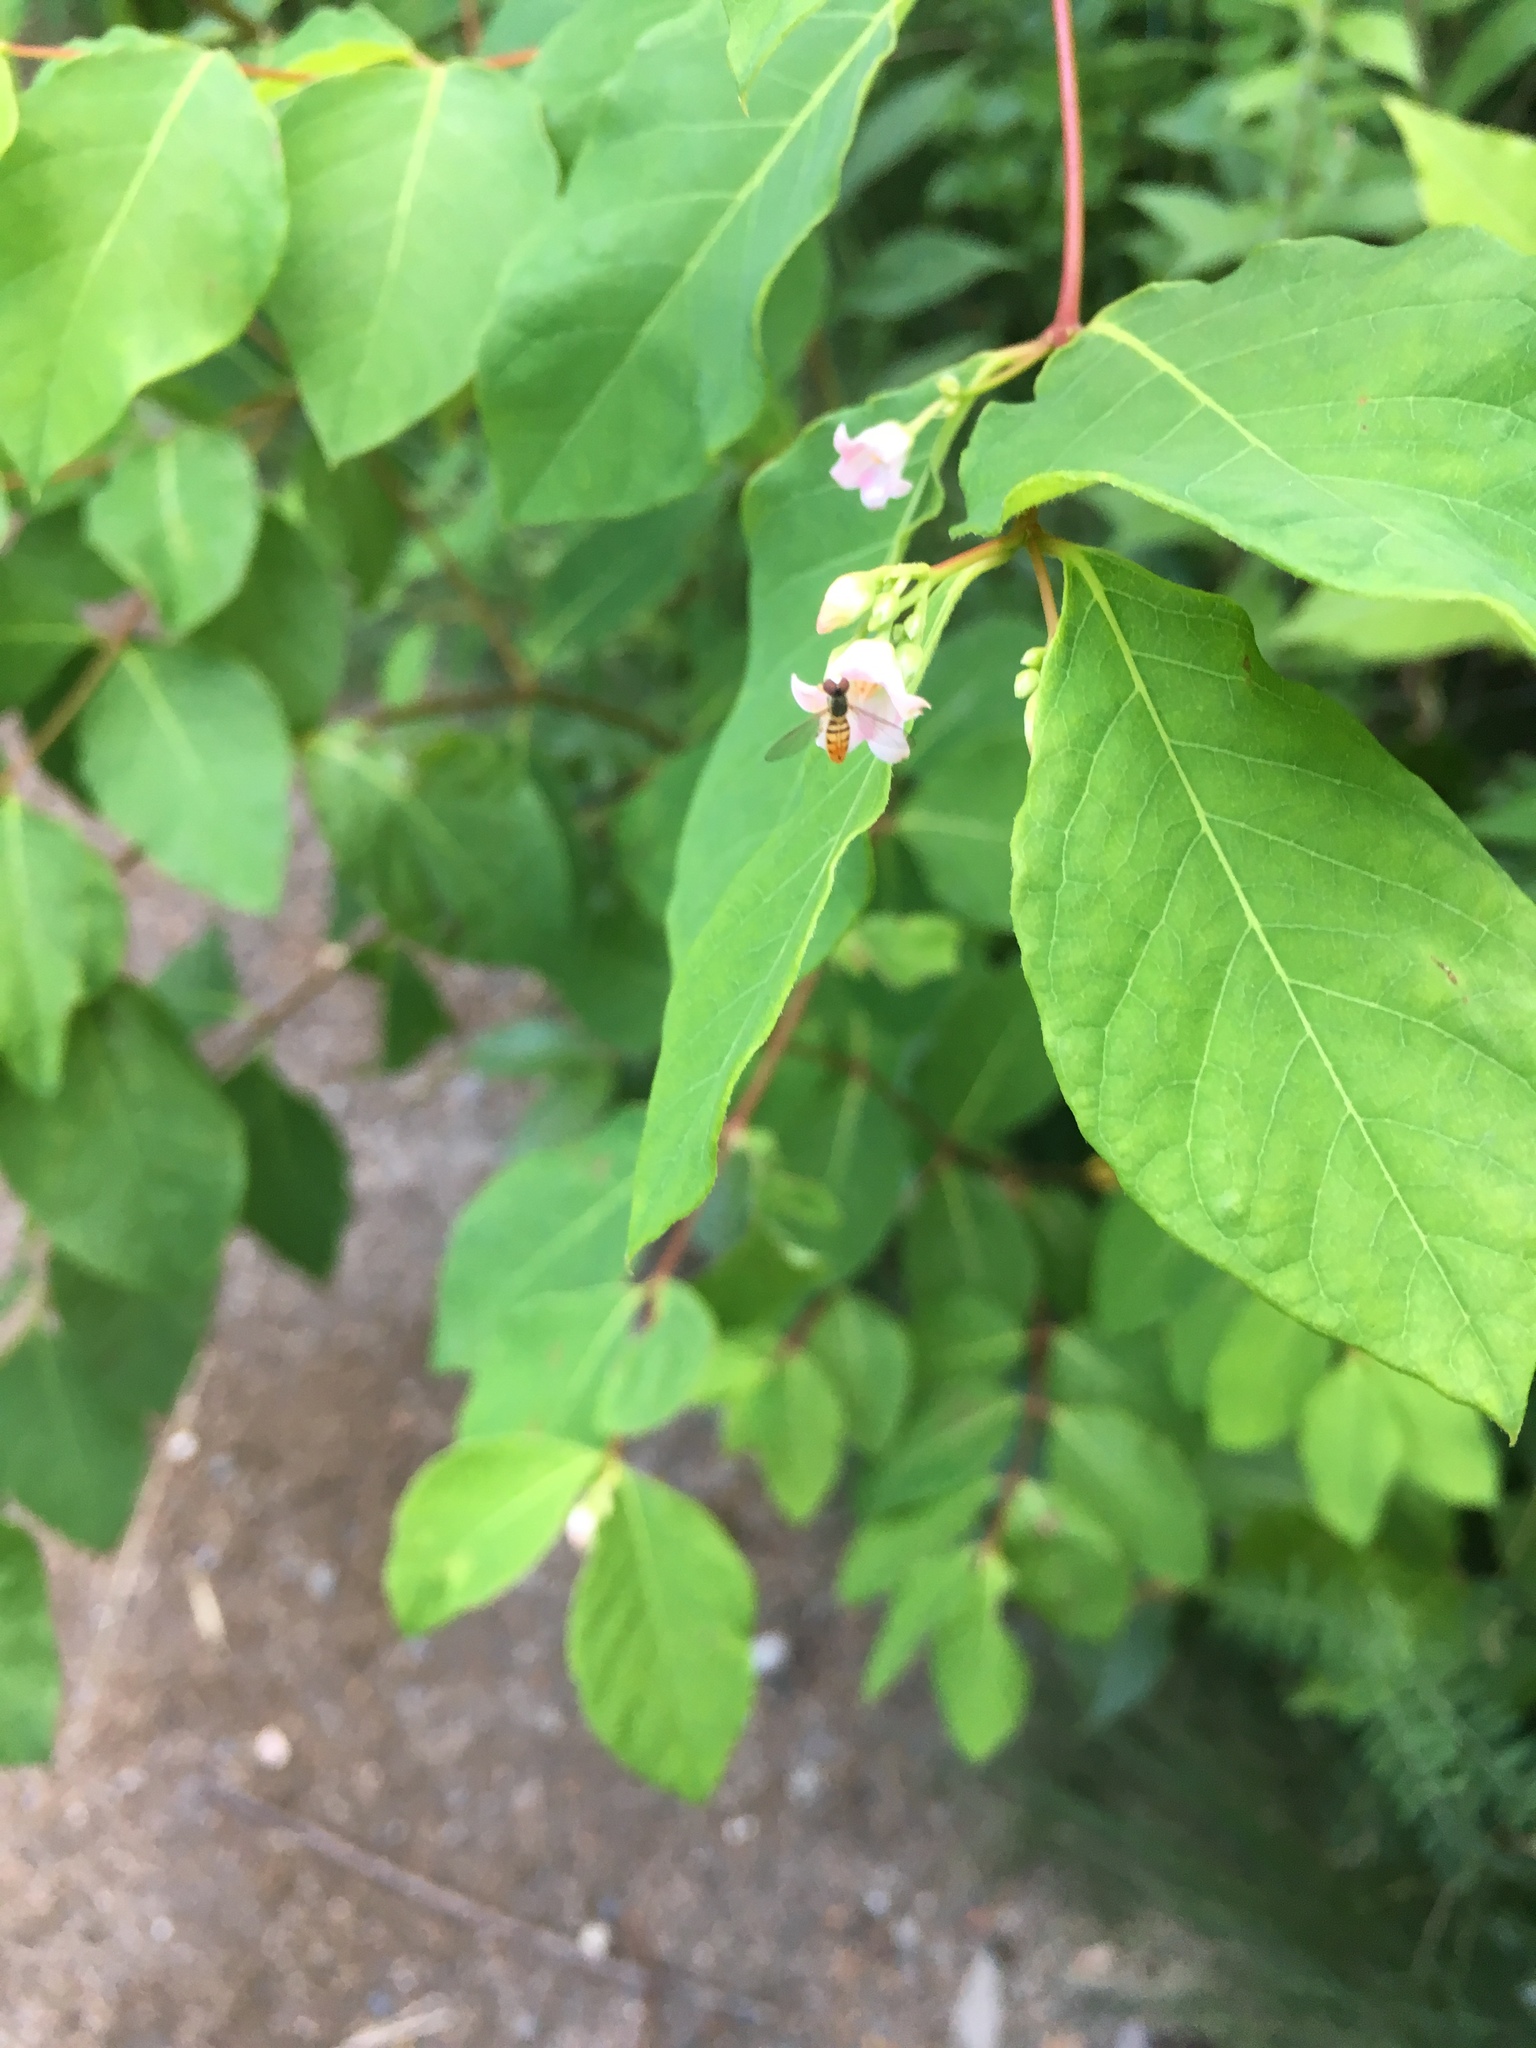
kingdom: Plantae
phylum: Tracheophyta
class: Magnoliopsida
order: Gentianales
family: Apocynaceae
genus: Apocynum
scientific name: Apocynum androsaemifolium
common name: Spreading dogbane
